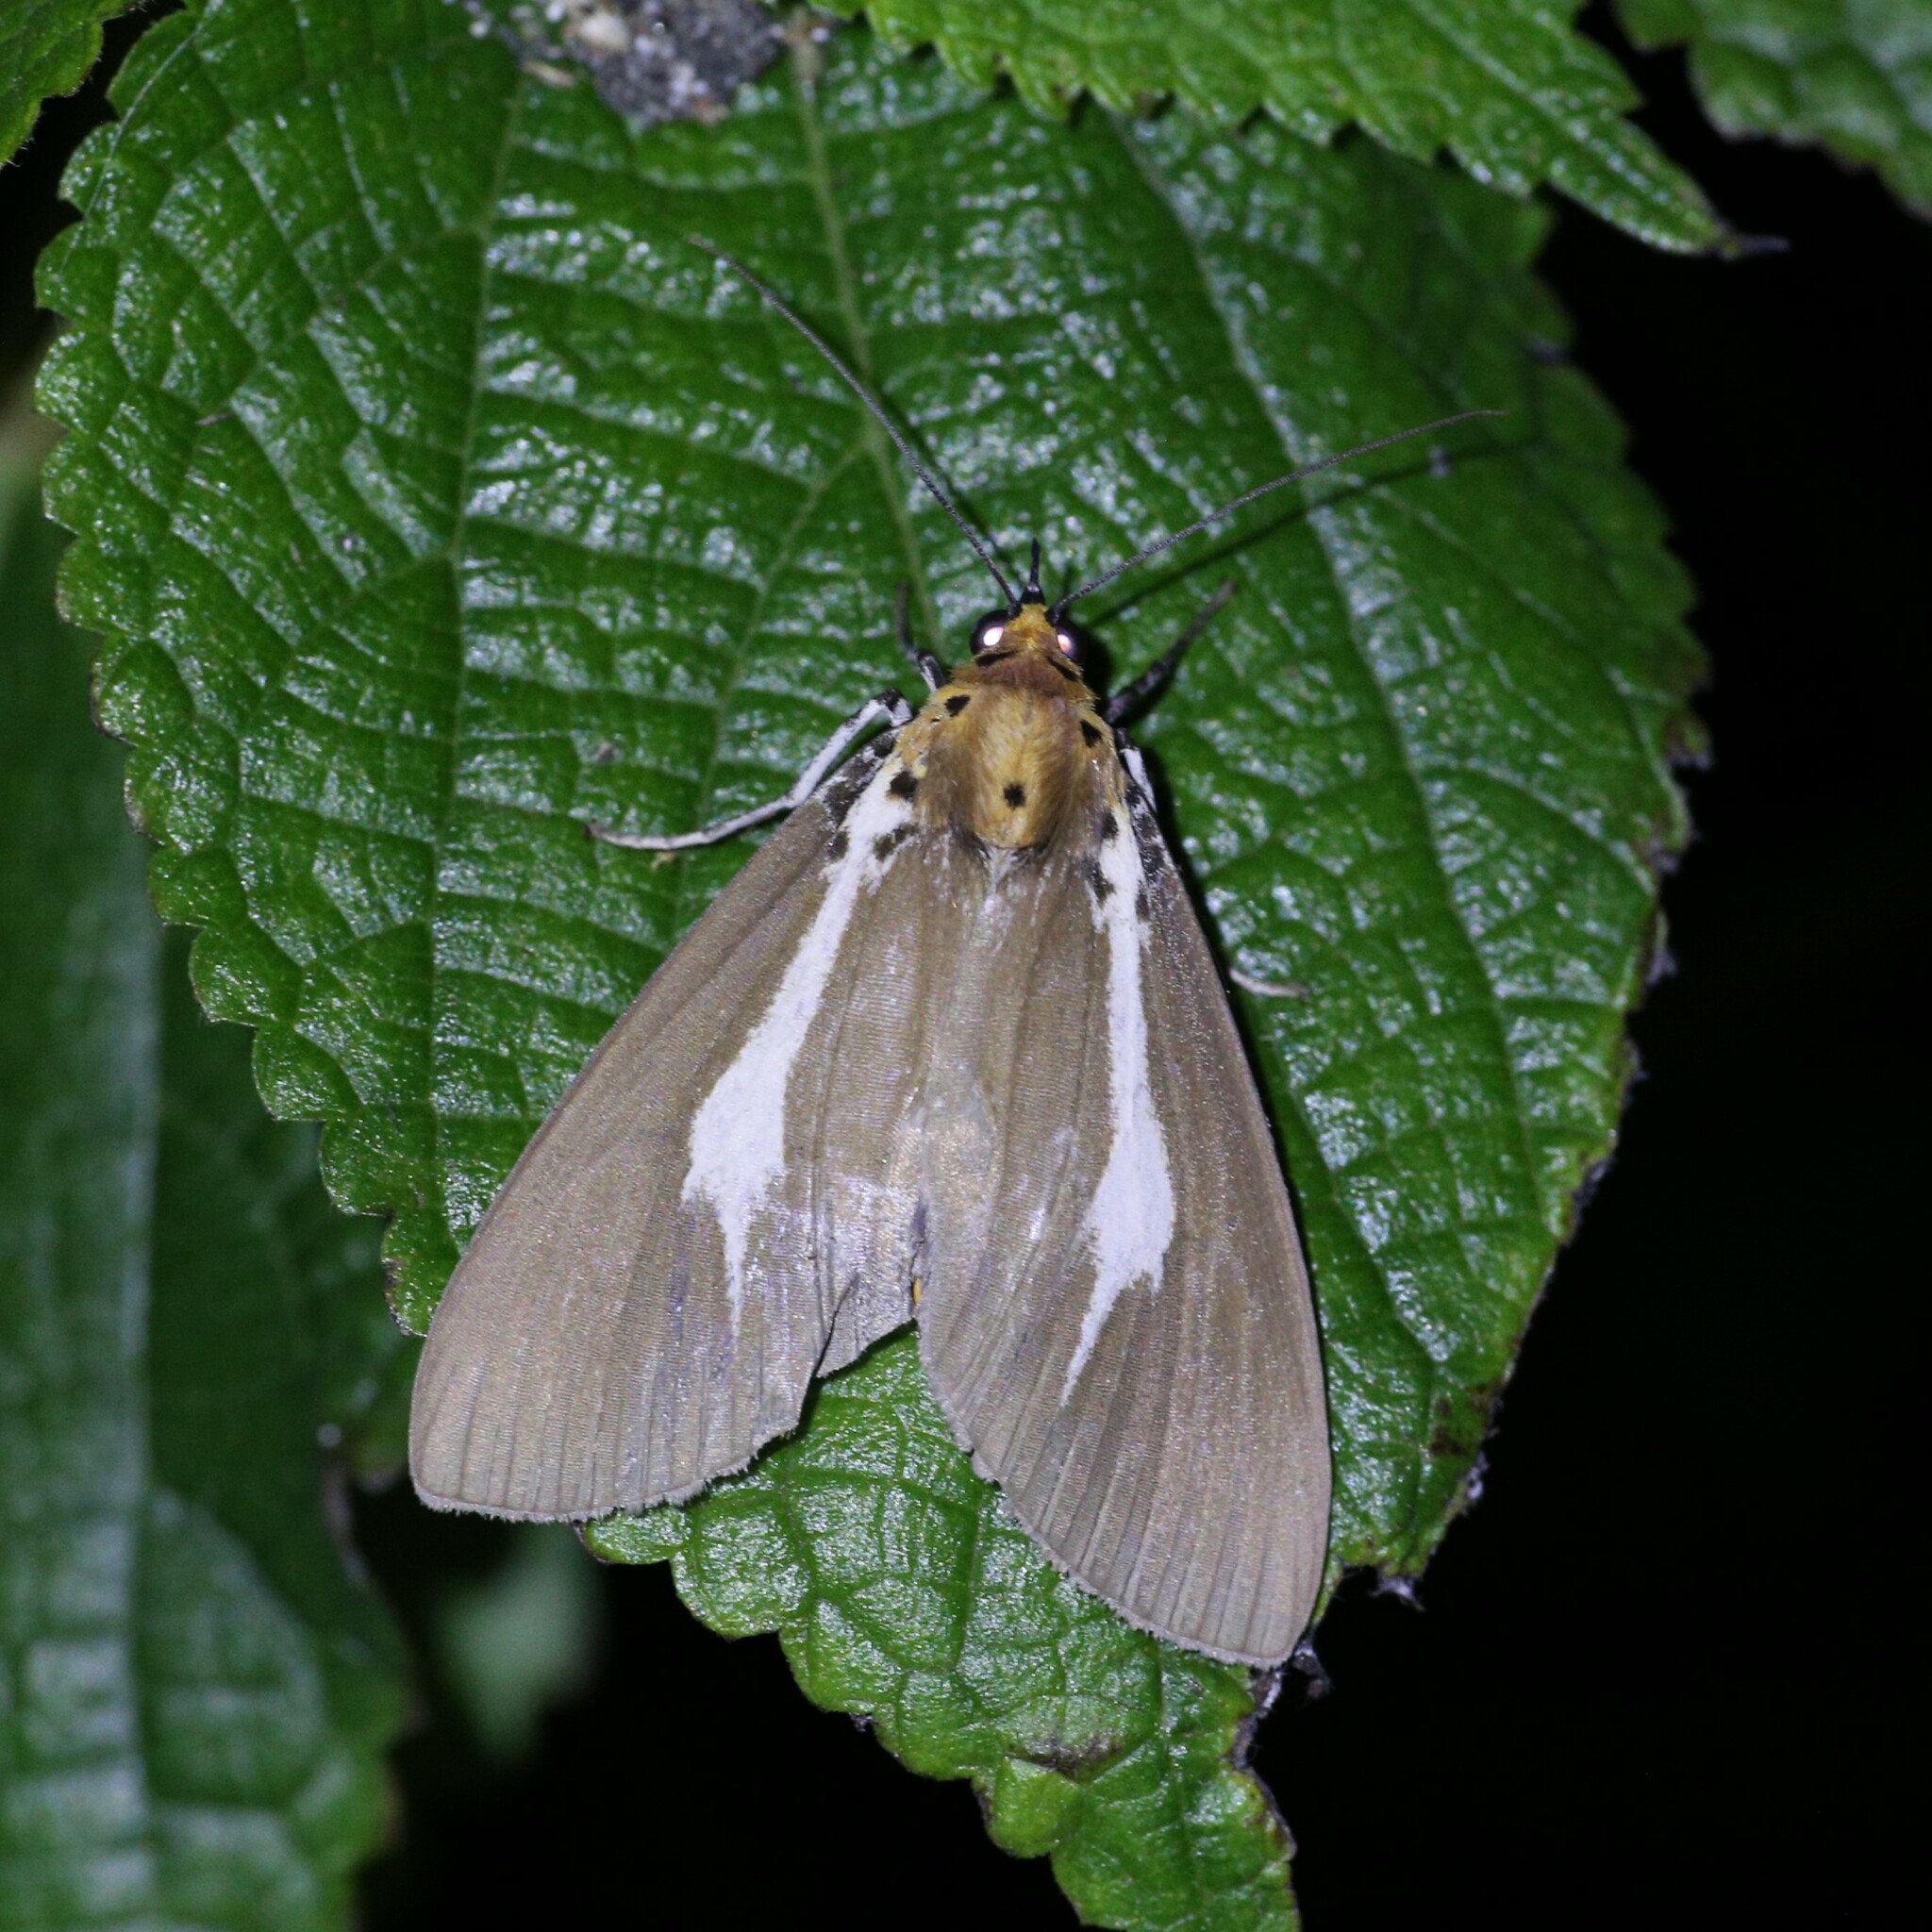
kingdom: Animalia
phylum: Arthropoda
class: Insecta
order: Lepidoptera
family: Erebidae
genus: Asota
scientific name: Asota heliconia
